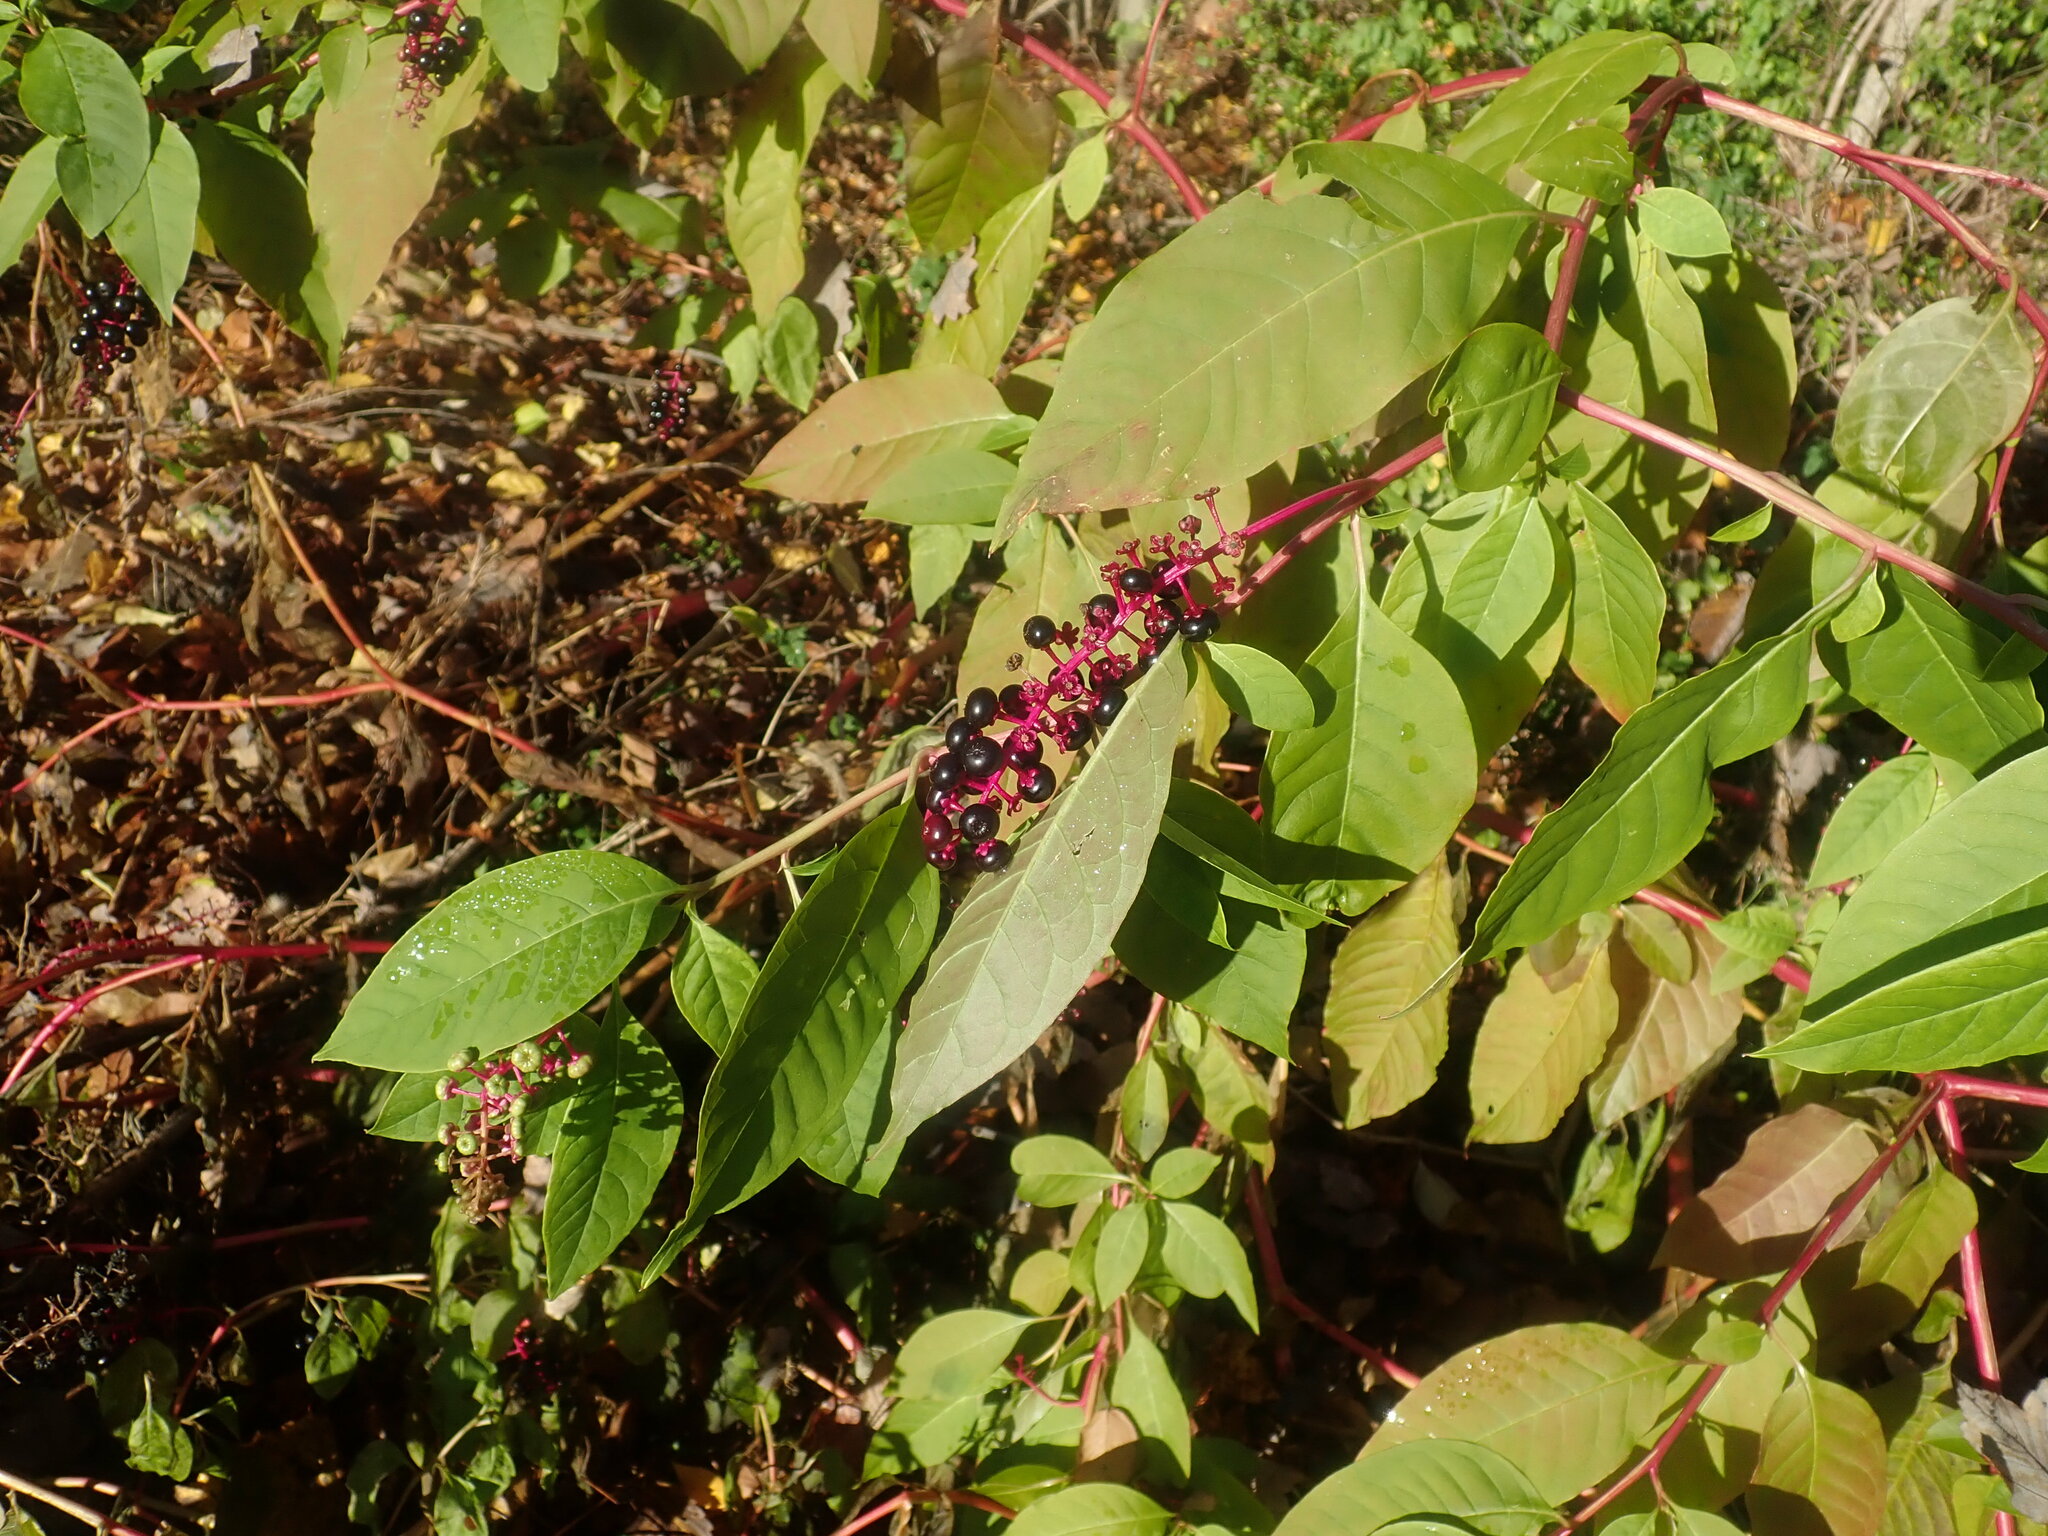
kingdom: Plantae
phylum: Tracheophyta
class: Magnoliopsida
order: Caryophyllales
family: Phytolaccaceae
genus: Phytolacca
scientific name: Phytolacca americana
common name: American pokeweed
